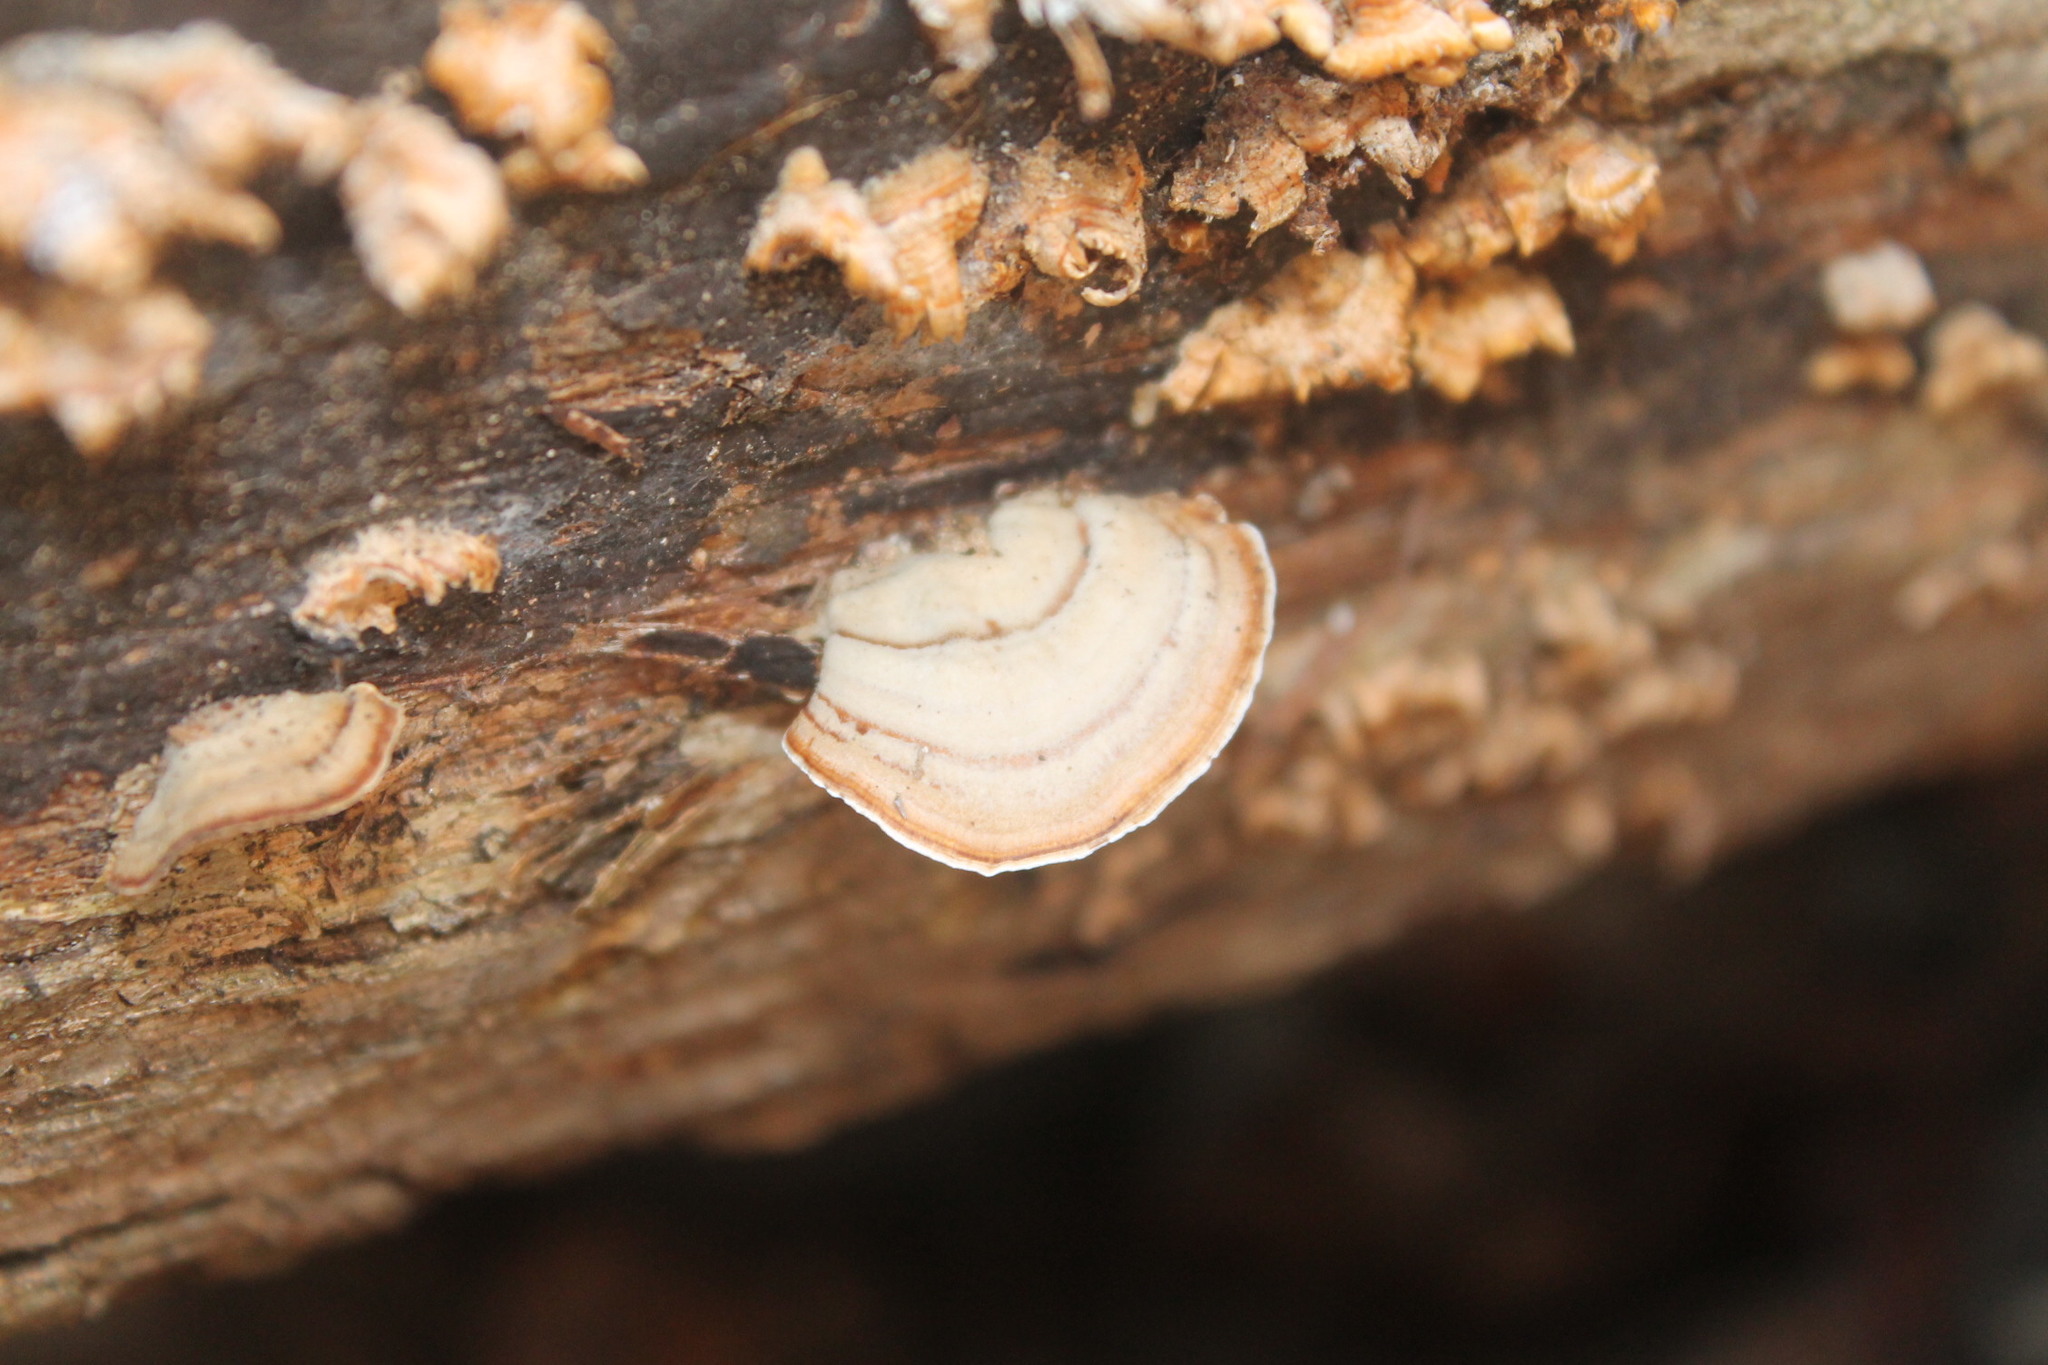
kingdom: Fungi
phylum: Basidiomycota
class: Agaricomycetes
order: Russulales
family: Stereaceae
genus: Stereum
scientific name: Stereum lobatum
